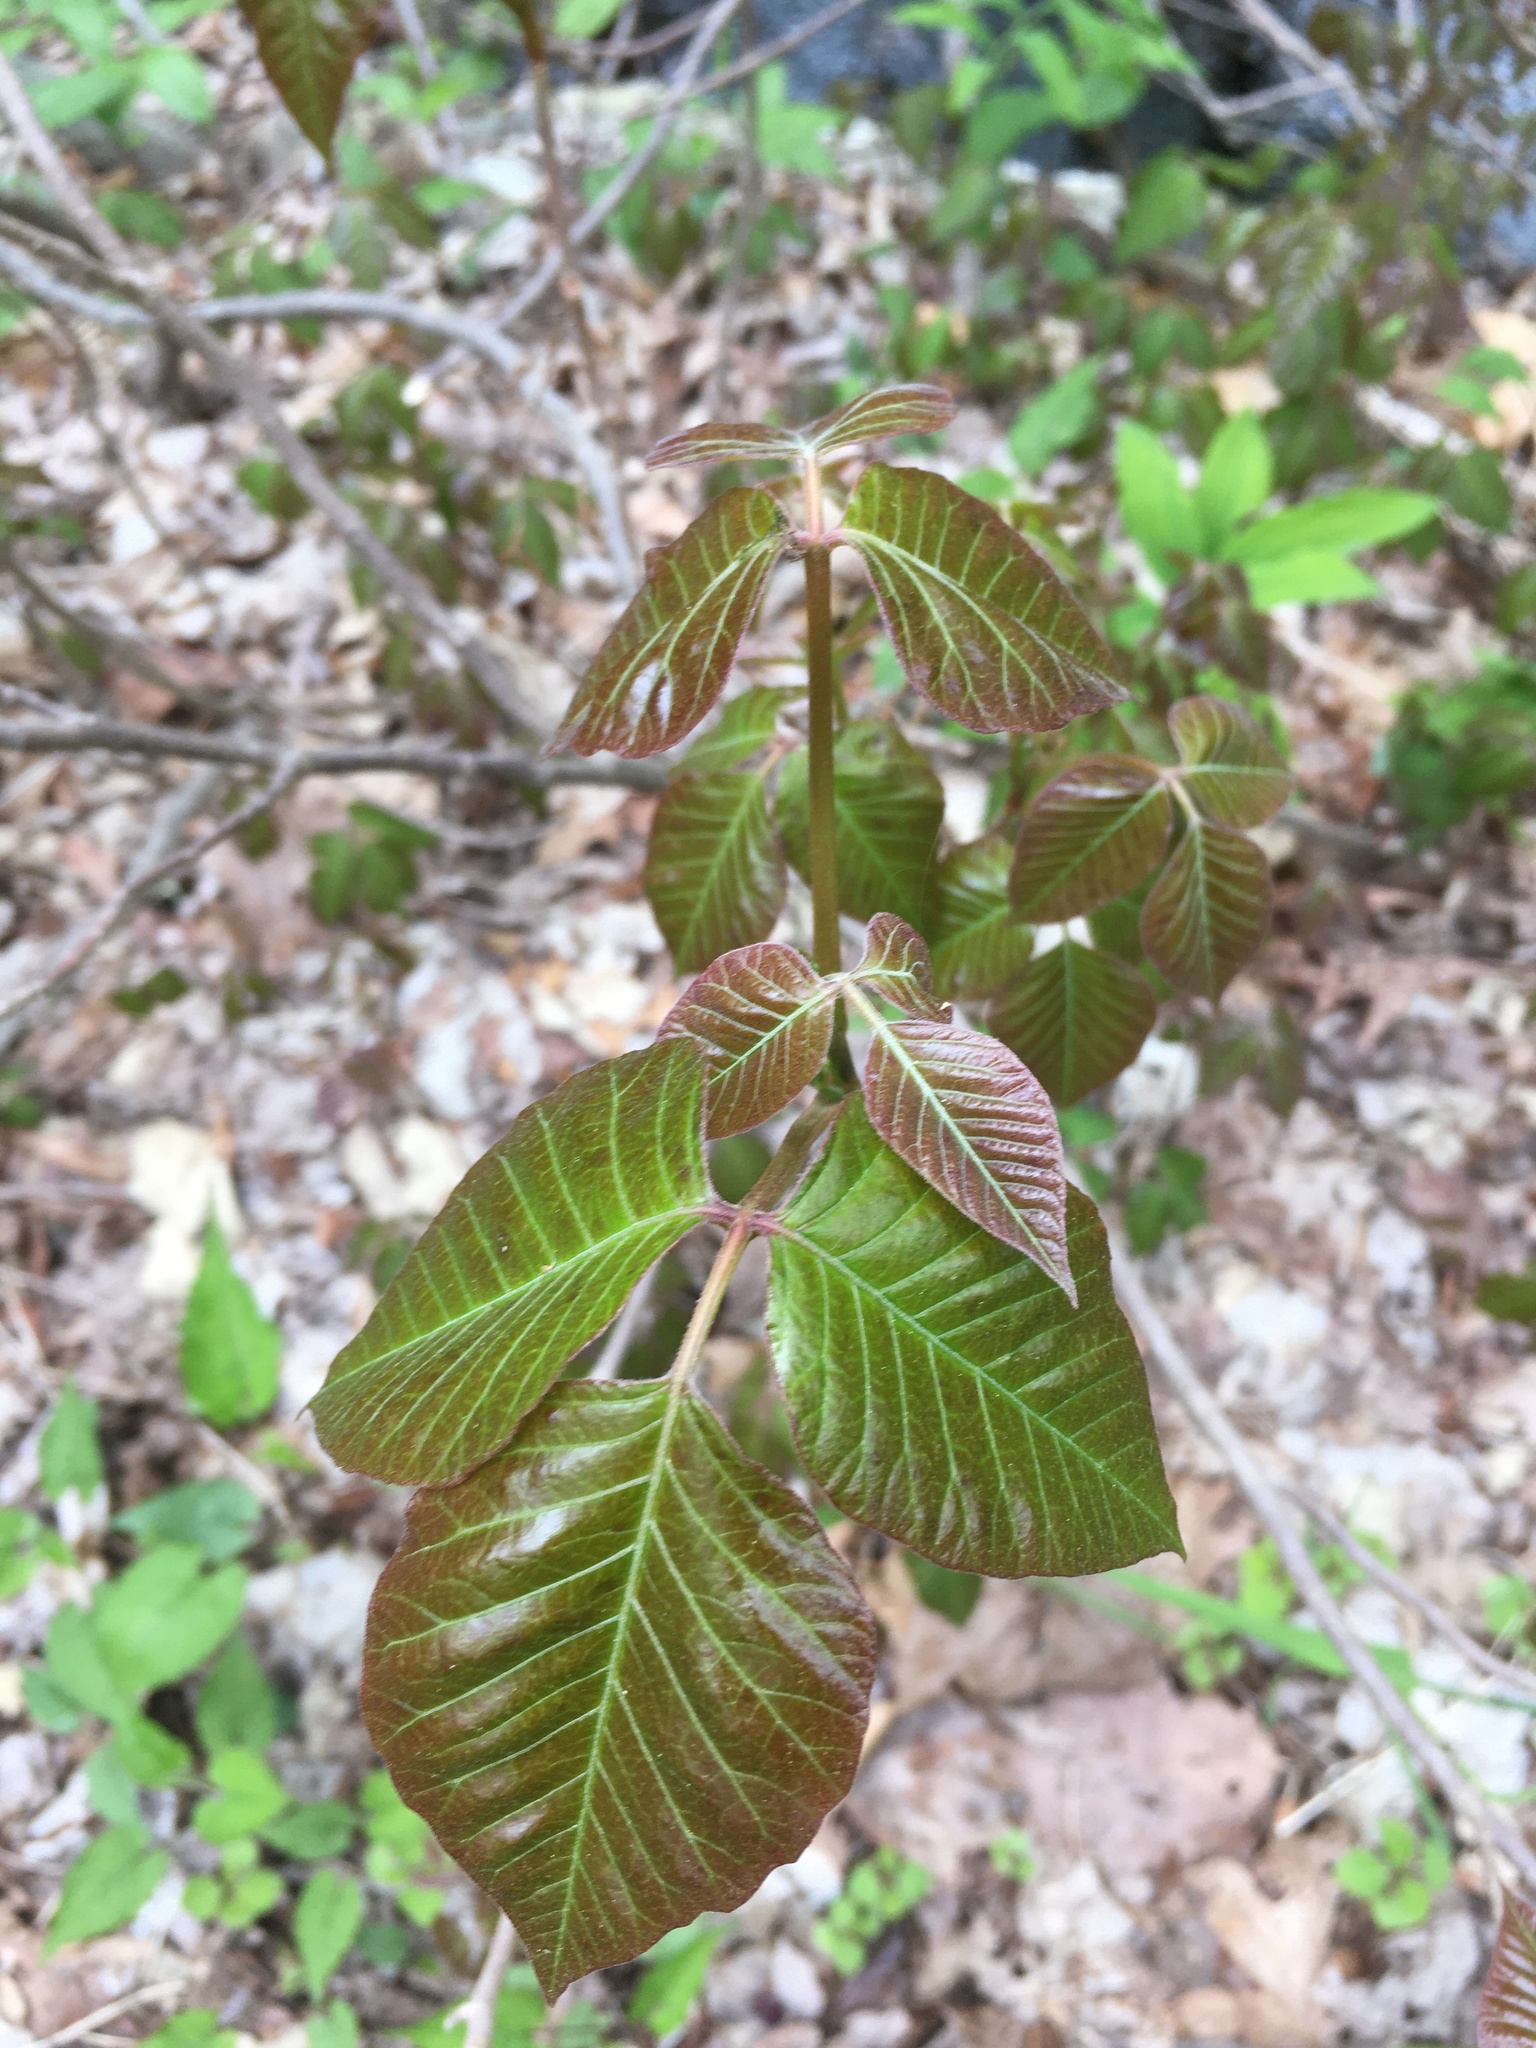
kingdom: Plantae
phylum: Tracheophyta
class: Magnoliopsida
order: Sapindales
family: Anacardiaceae
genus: Toxicodendron
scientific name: Toxicodendron radicans
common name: Poison ivy
